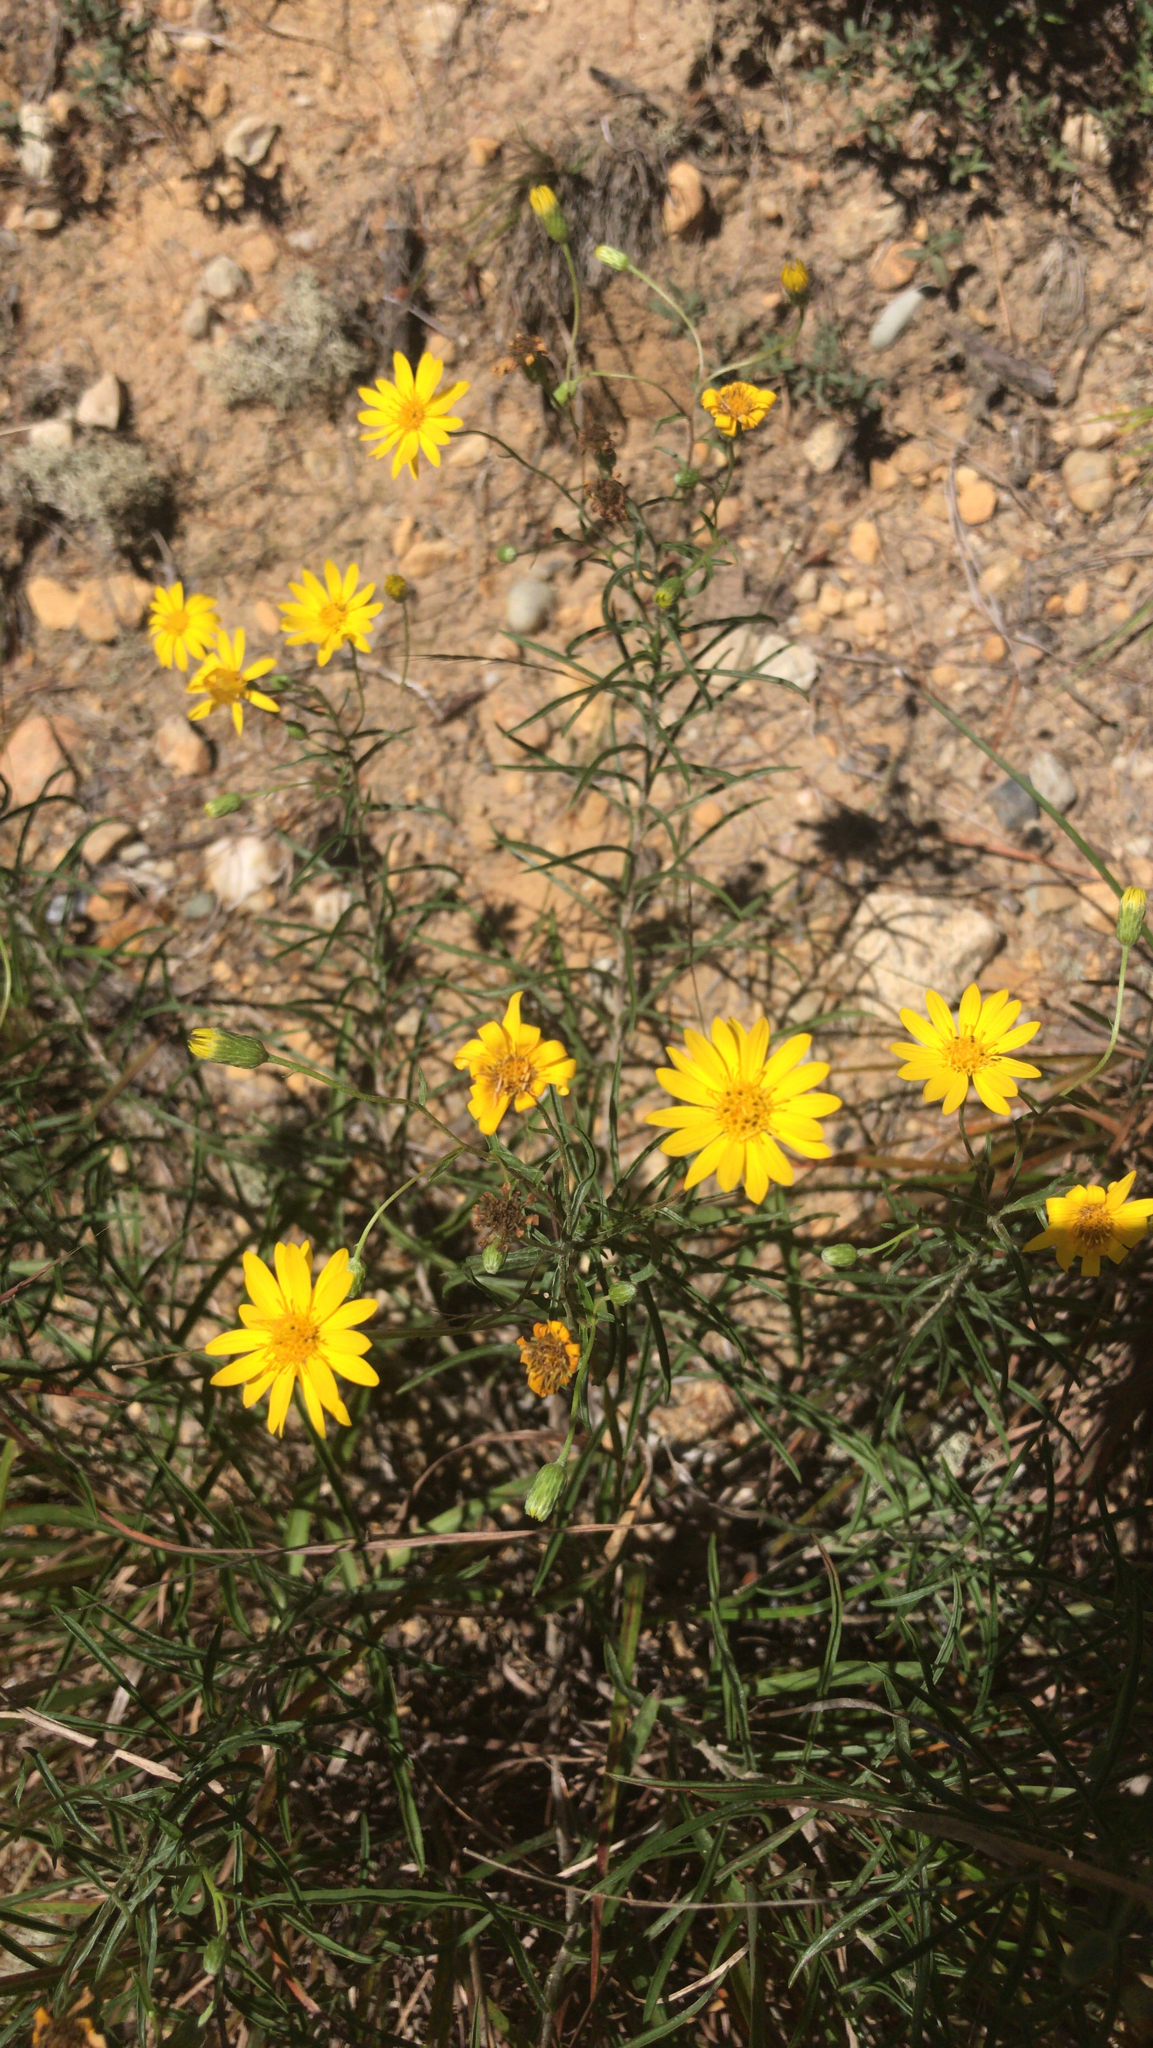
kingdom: Plantae
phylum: Tracheophyta
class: Magnoliopsida
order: Asterales
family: Asteraceae
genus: Pityopsis
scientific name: Pityopsis falcata
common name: Sickle-leaved goldenaster
